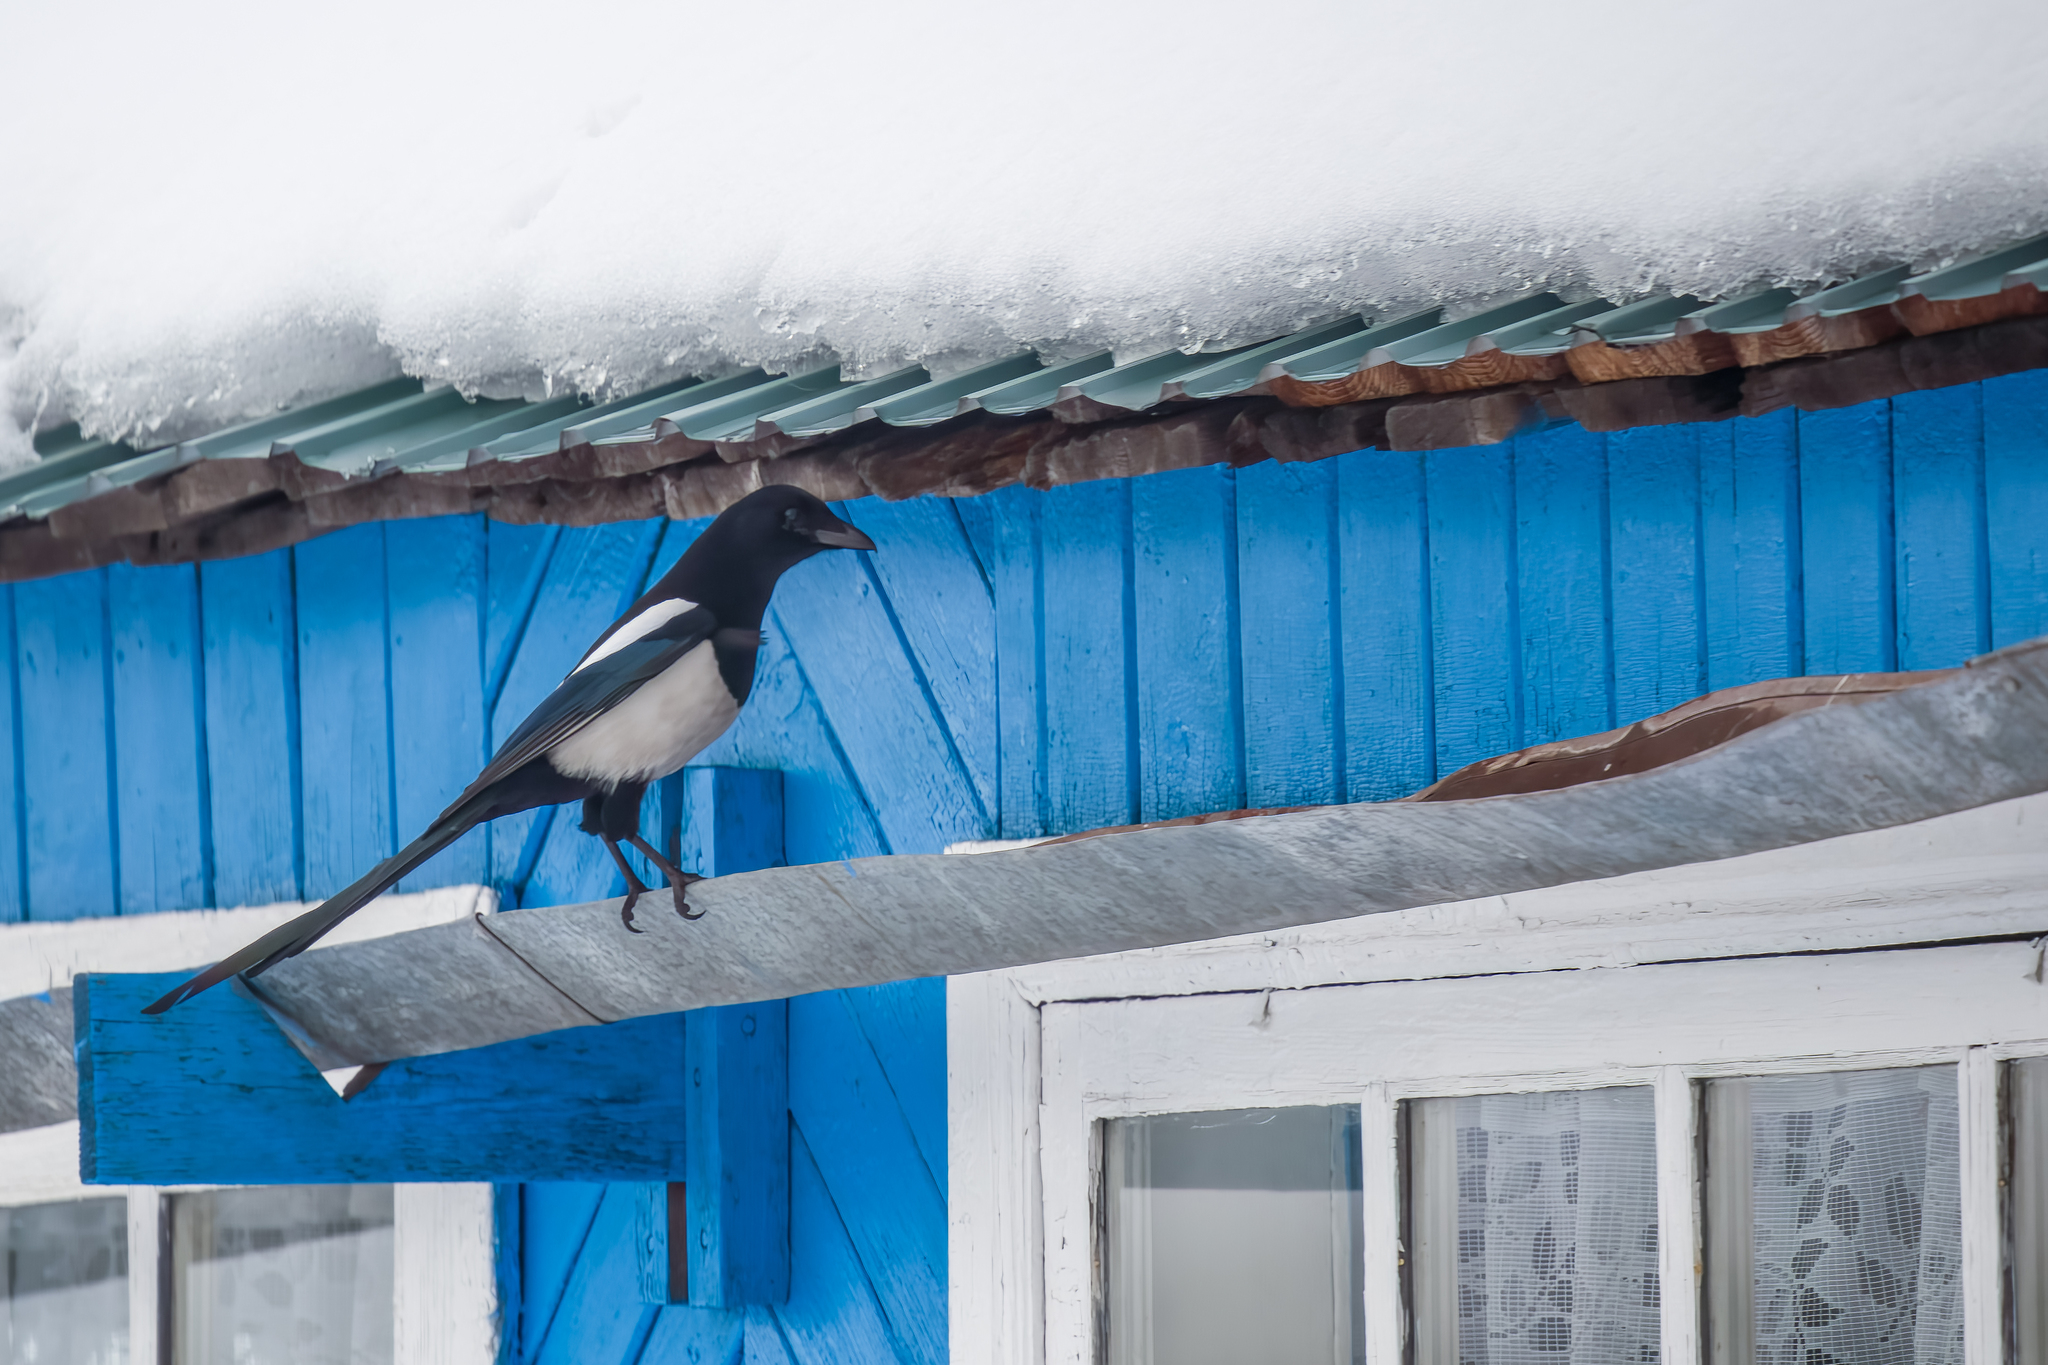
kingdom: Animalia
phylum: Chordata
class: Aves
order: Passeriformes
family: Corvidae
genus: Pica
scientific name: Pica pica
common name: Eurasian magpie
